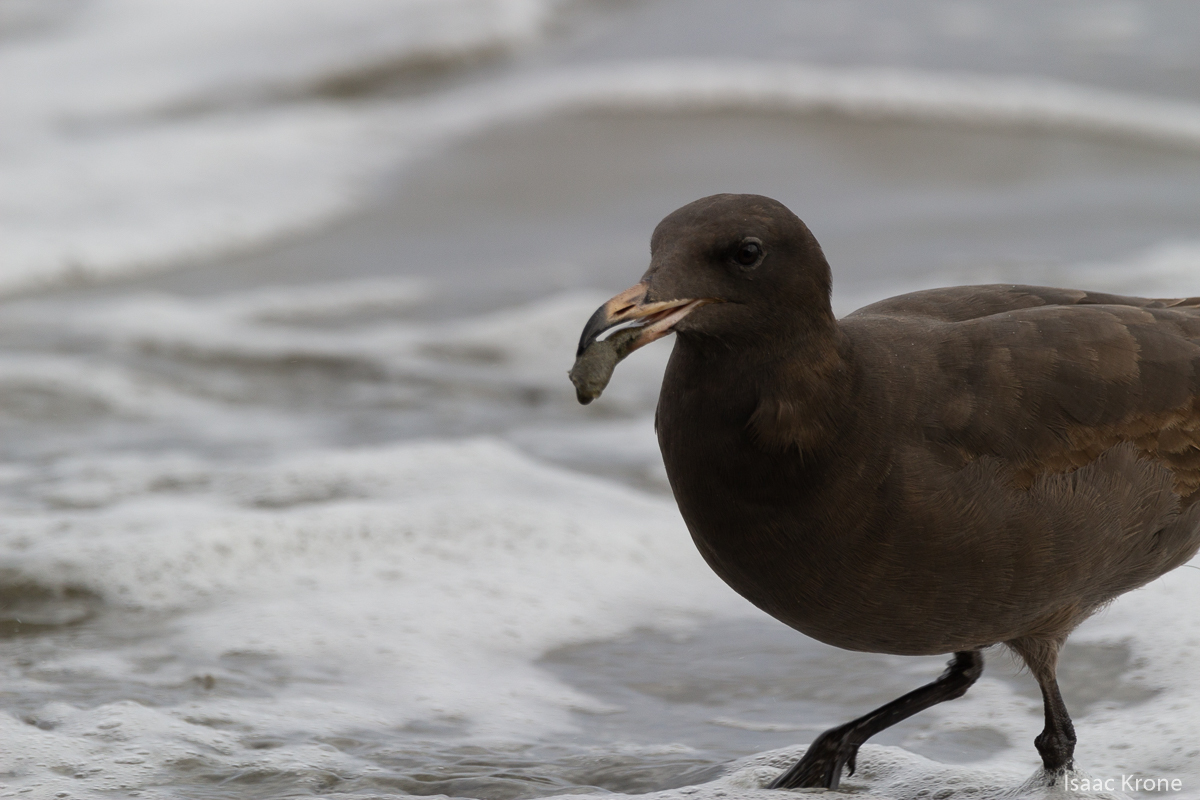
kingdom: Animalia
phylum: Chordata
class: Aves
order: Charadriiformes
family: Laridae
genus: Larus
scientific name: Larus heermanni
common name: Heermann's gull
